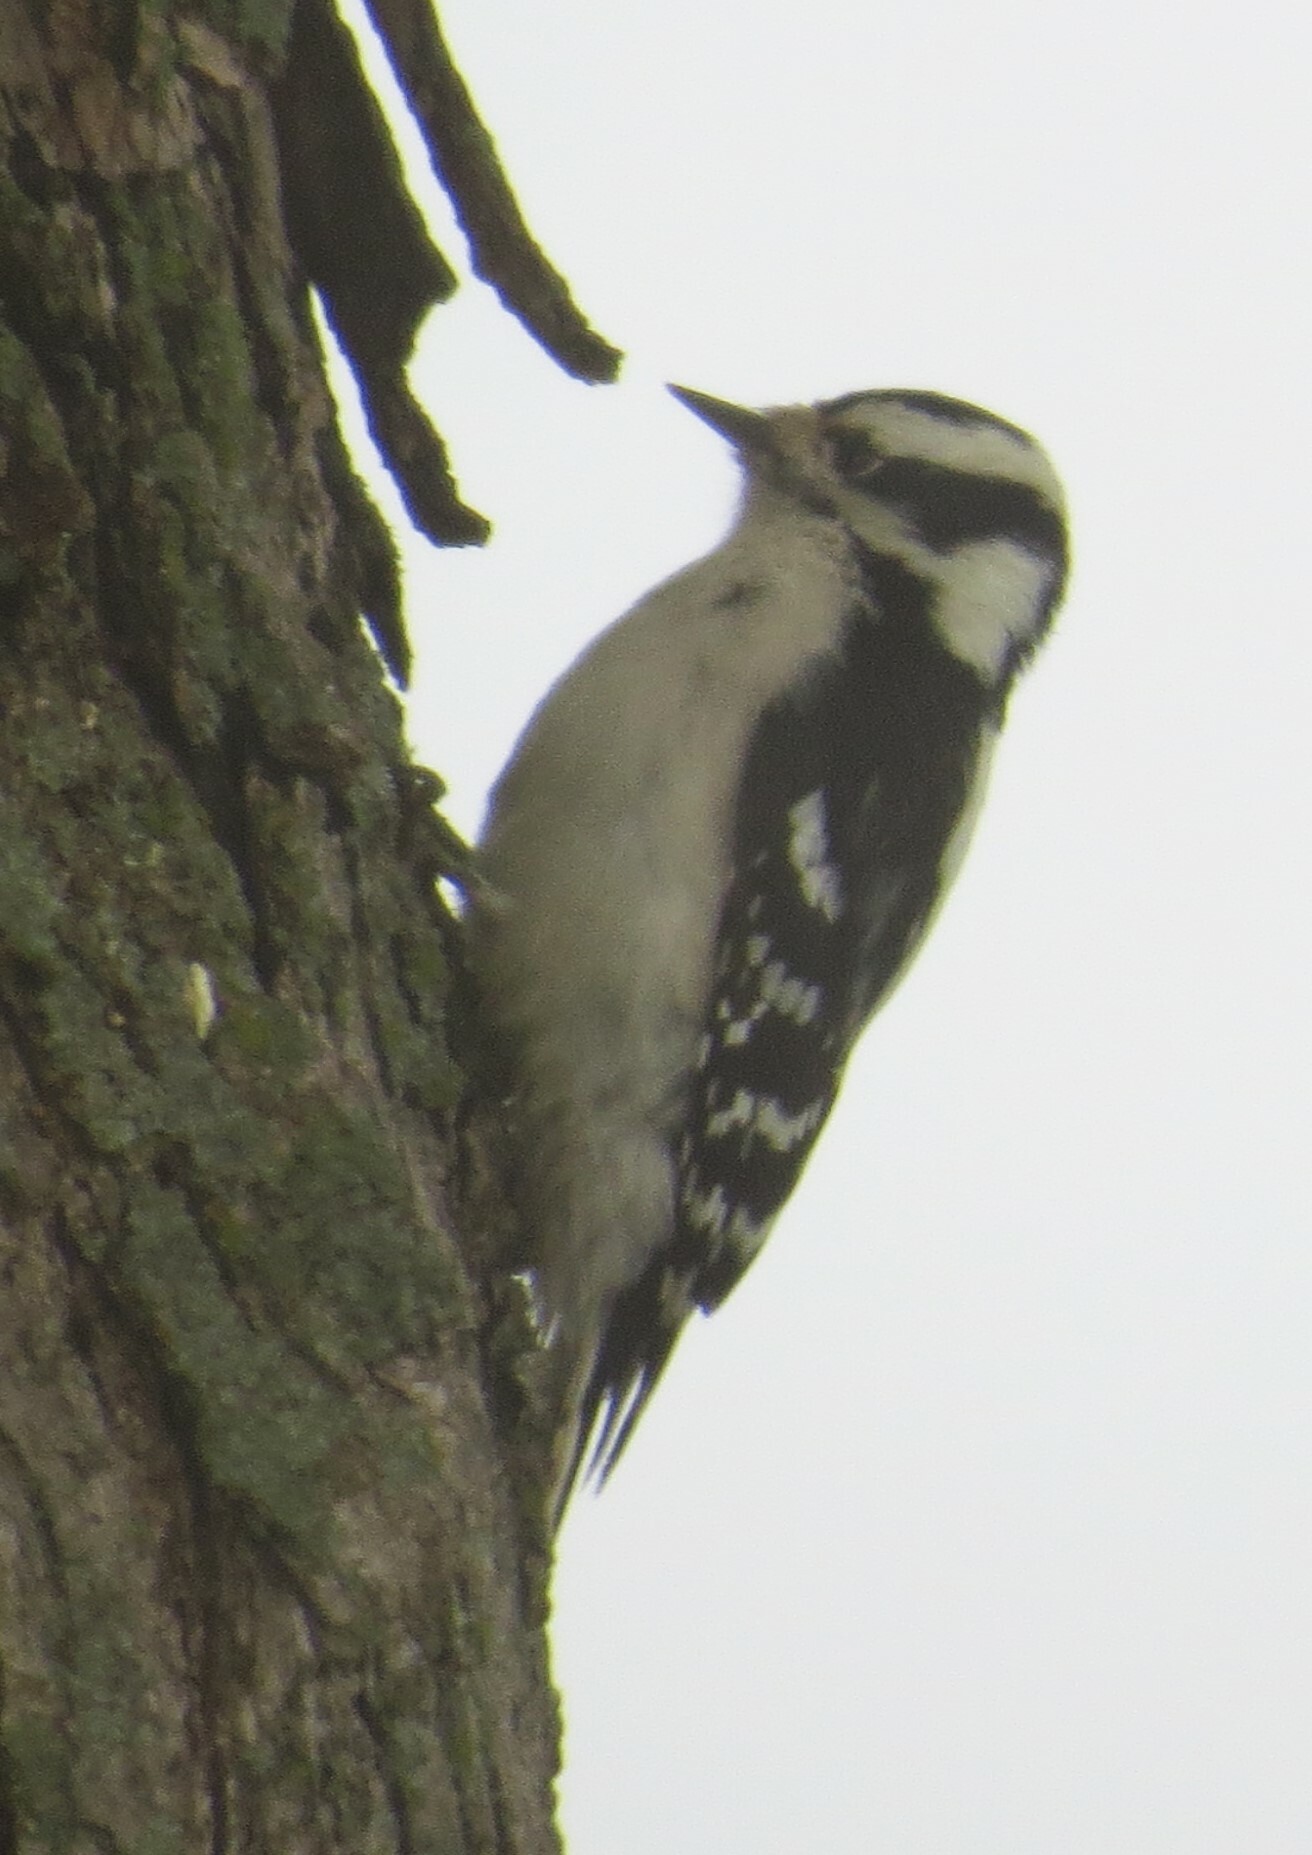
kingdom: Animalia
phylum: Chordata
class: Aves
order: Piciformes
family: Picidae
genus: Dryobates
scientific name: Dryobates pubescens
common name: Downy woodpecker
